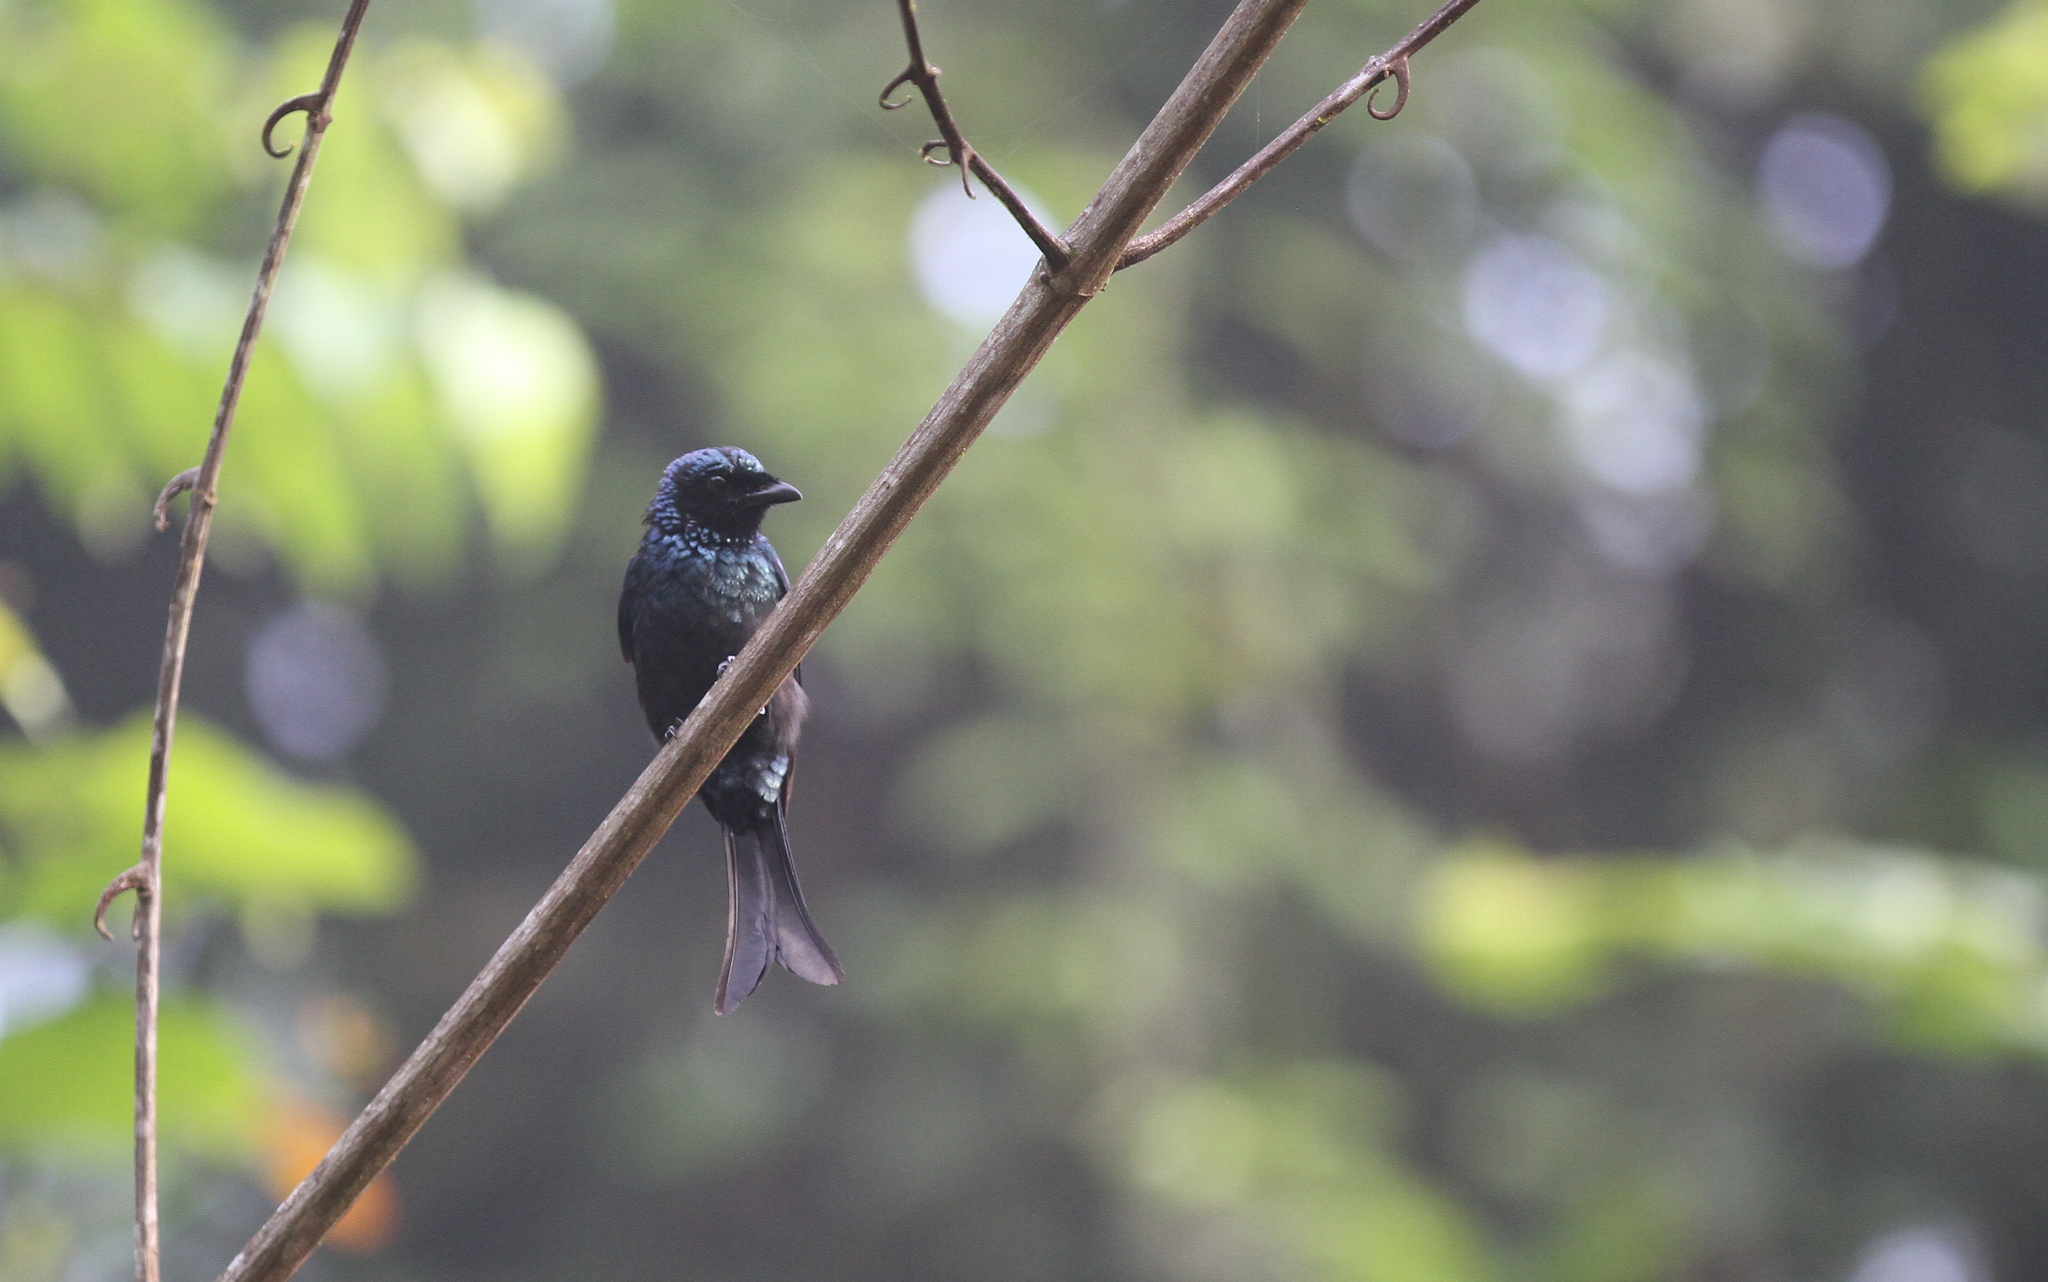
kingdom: Animalia
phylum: Chordata
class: Aves
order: Passeriformes
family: Dicruridae
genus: Dicrurus
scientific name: Dicrurus aeneus
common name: Bronzed drongo
